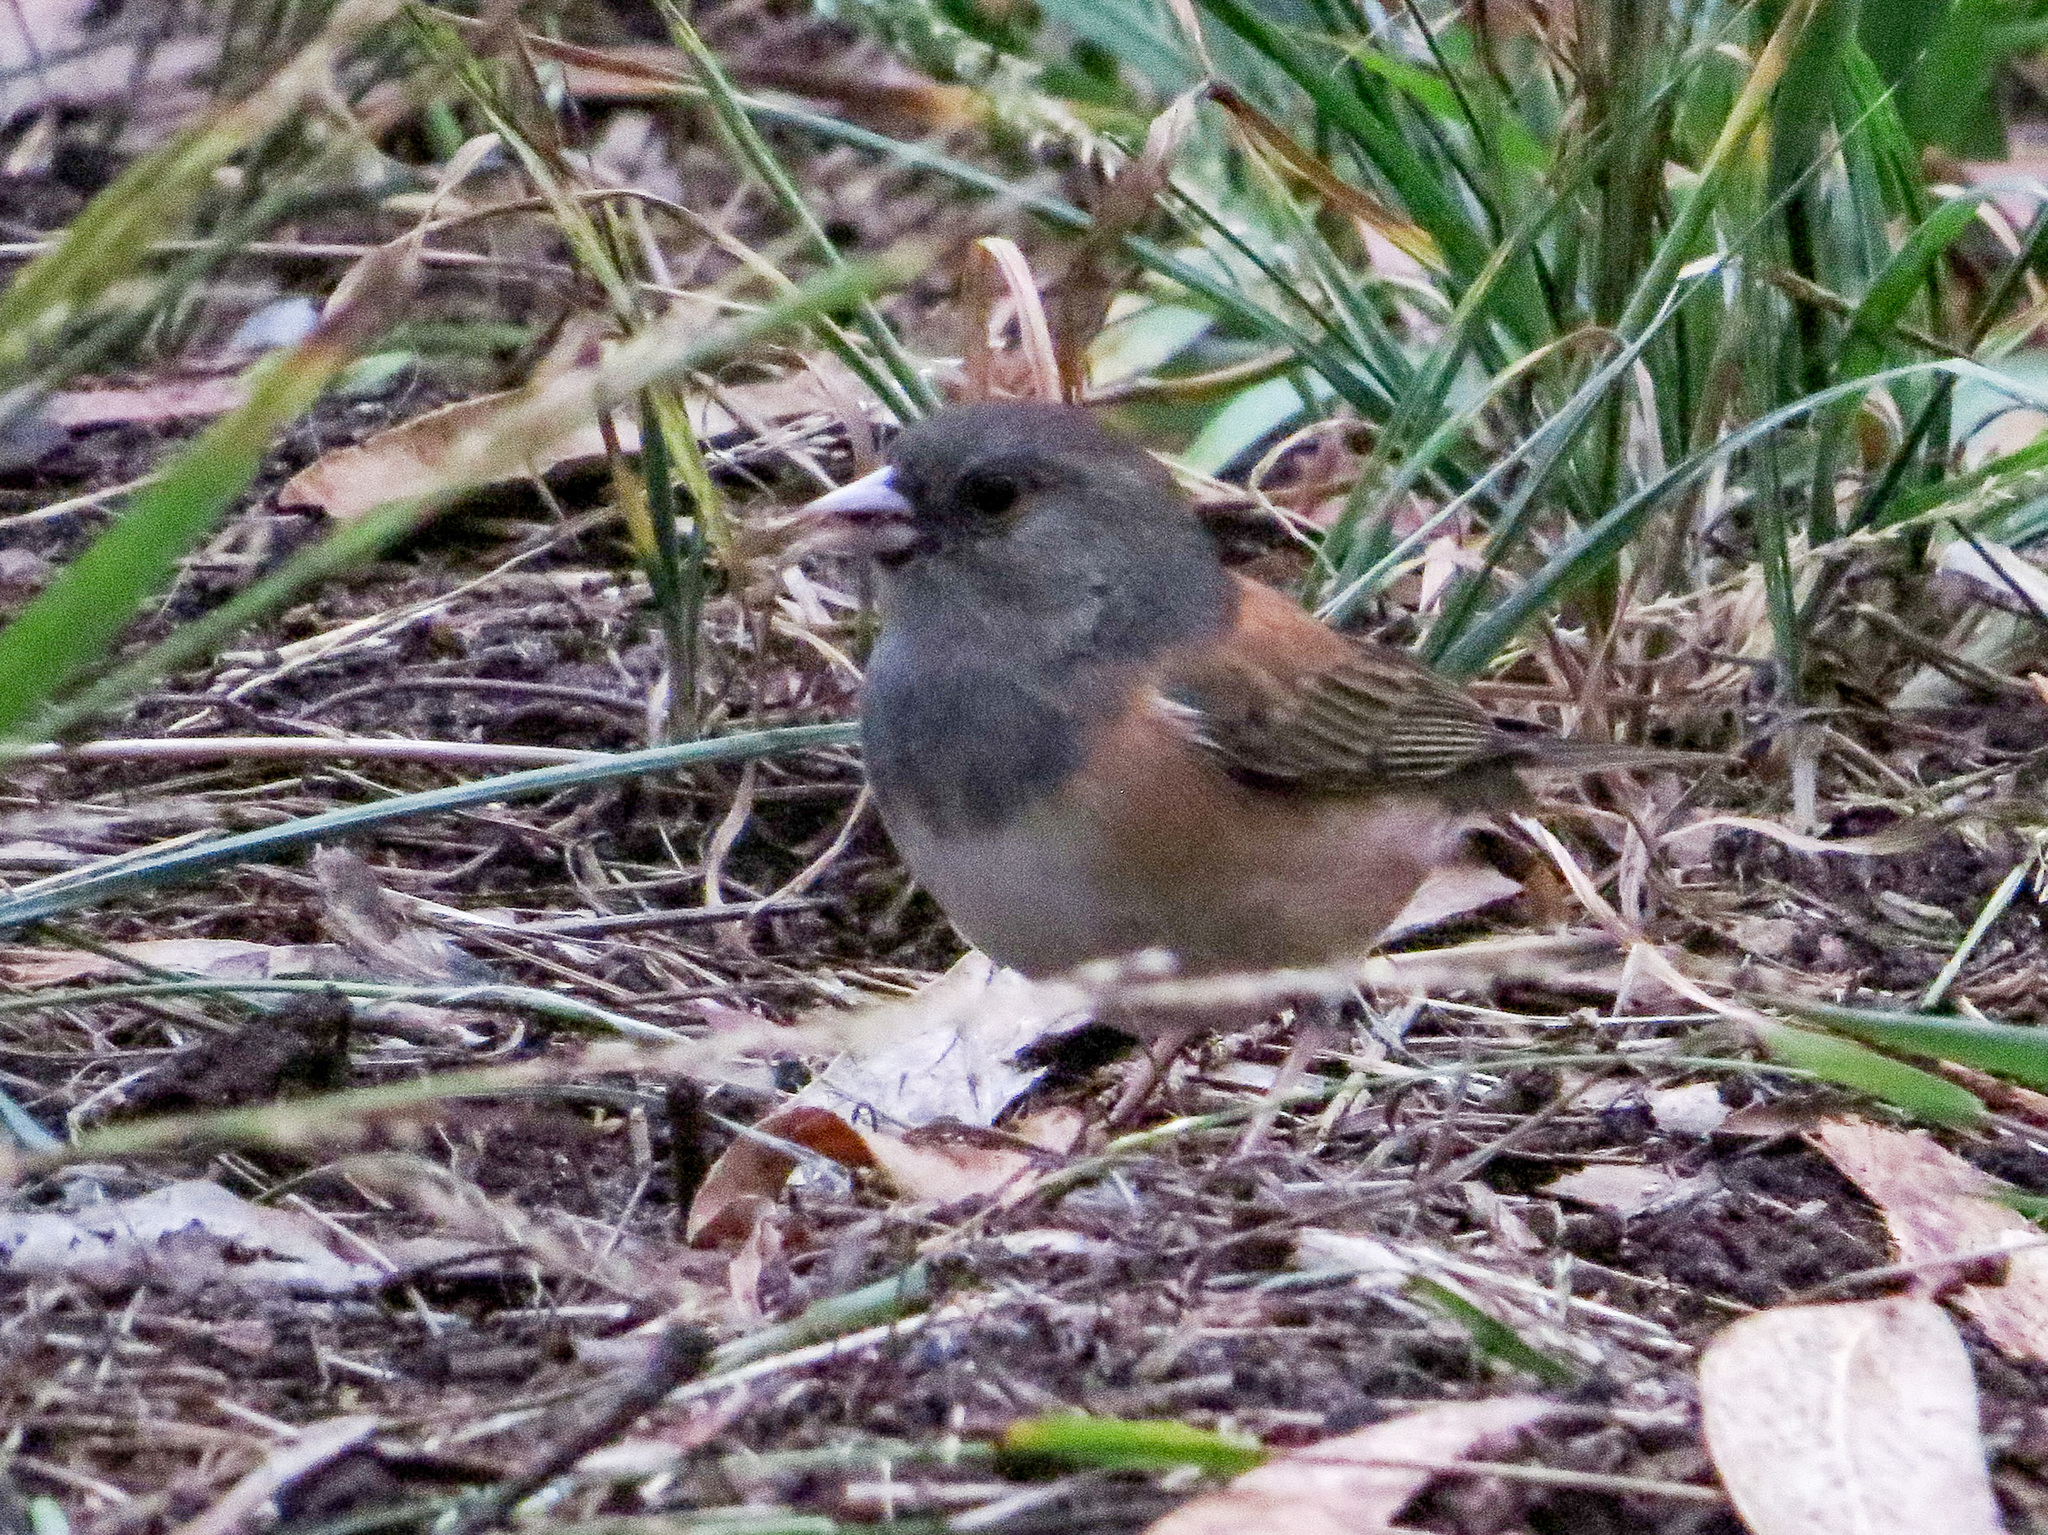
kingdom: Animalia
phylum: Chordata
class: Aves
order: Passeriformes
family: Passerellidae
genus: Junco
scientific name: Junco hyemalis
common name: Dark-eyed junco
